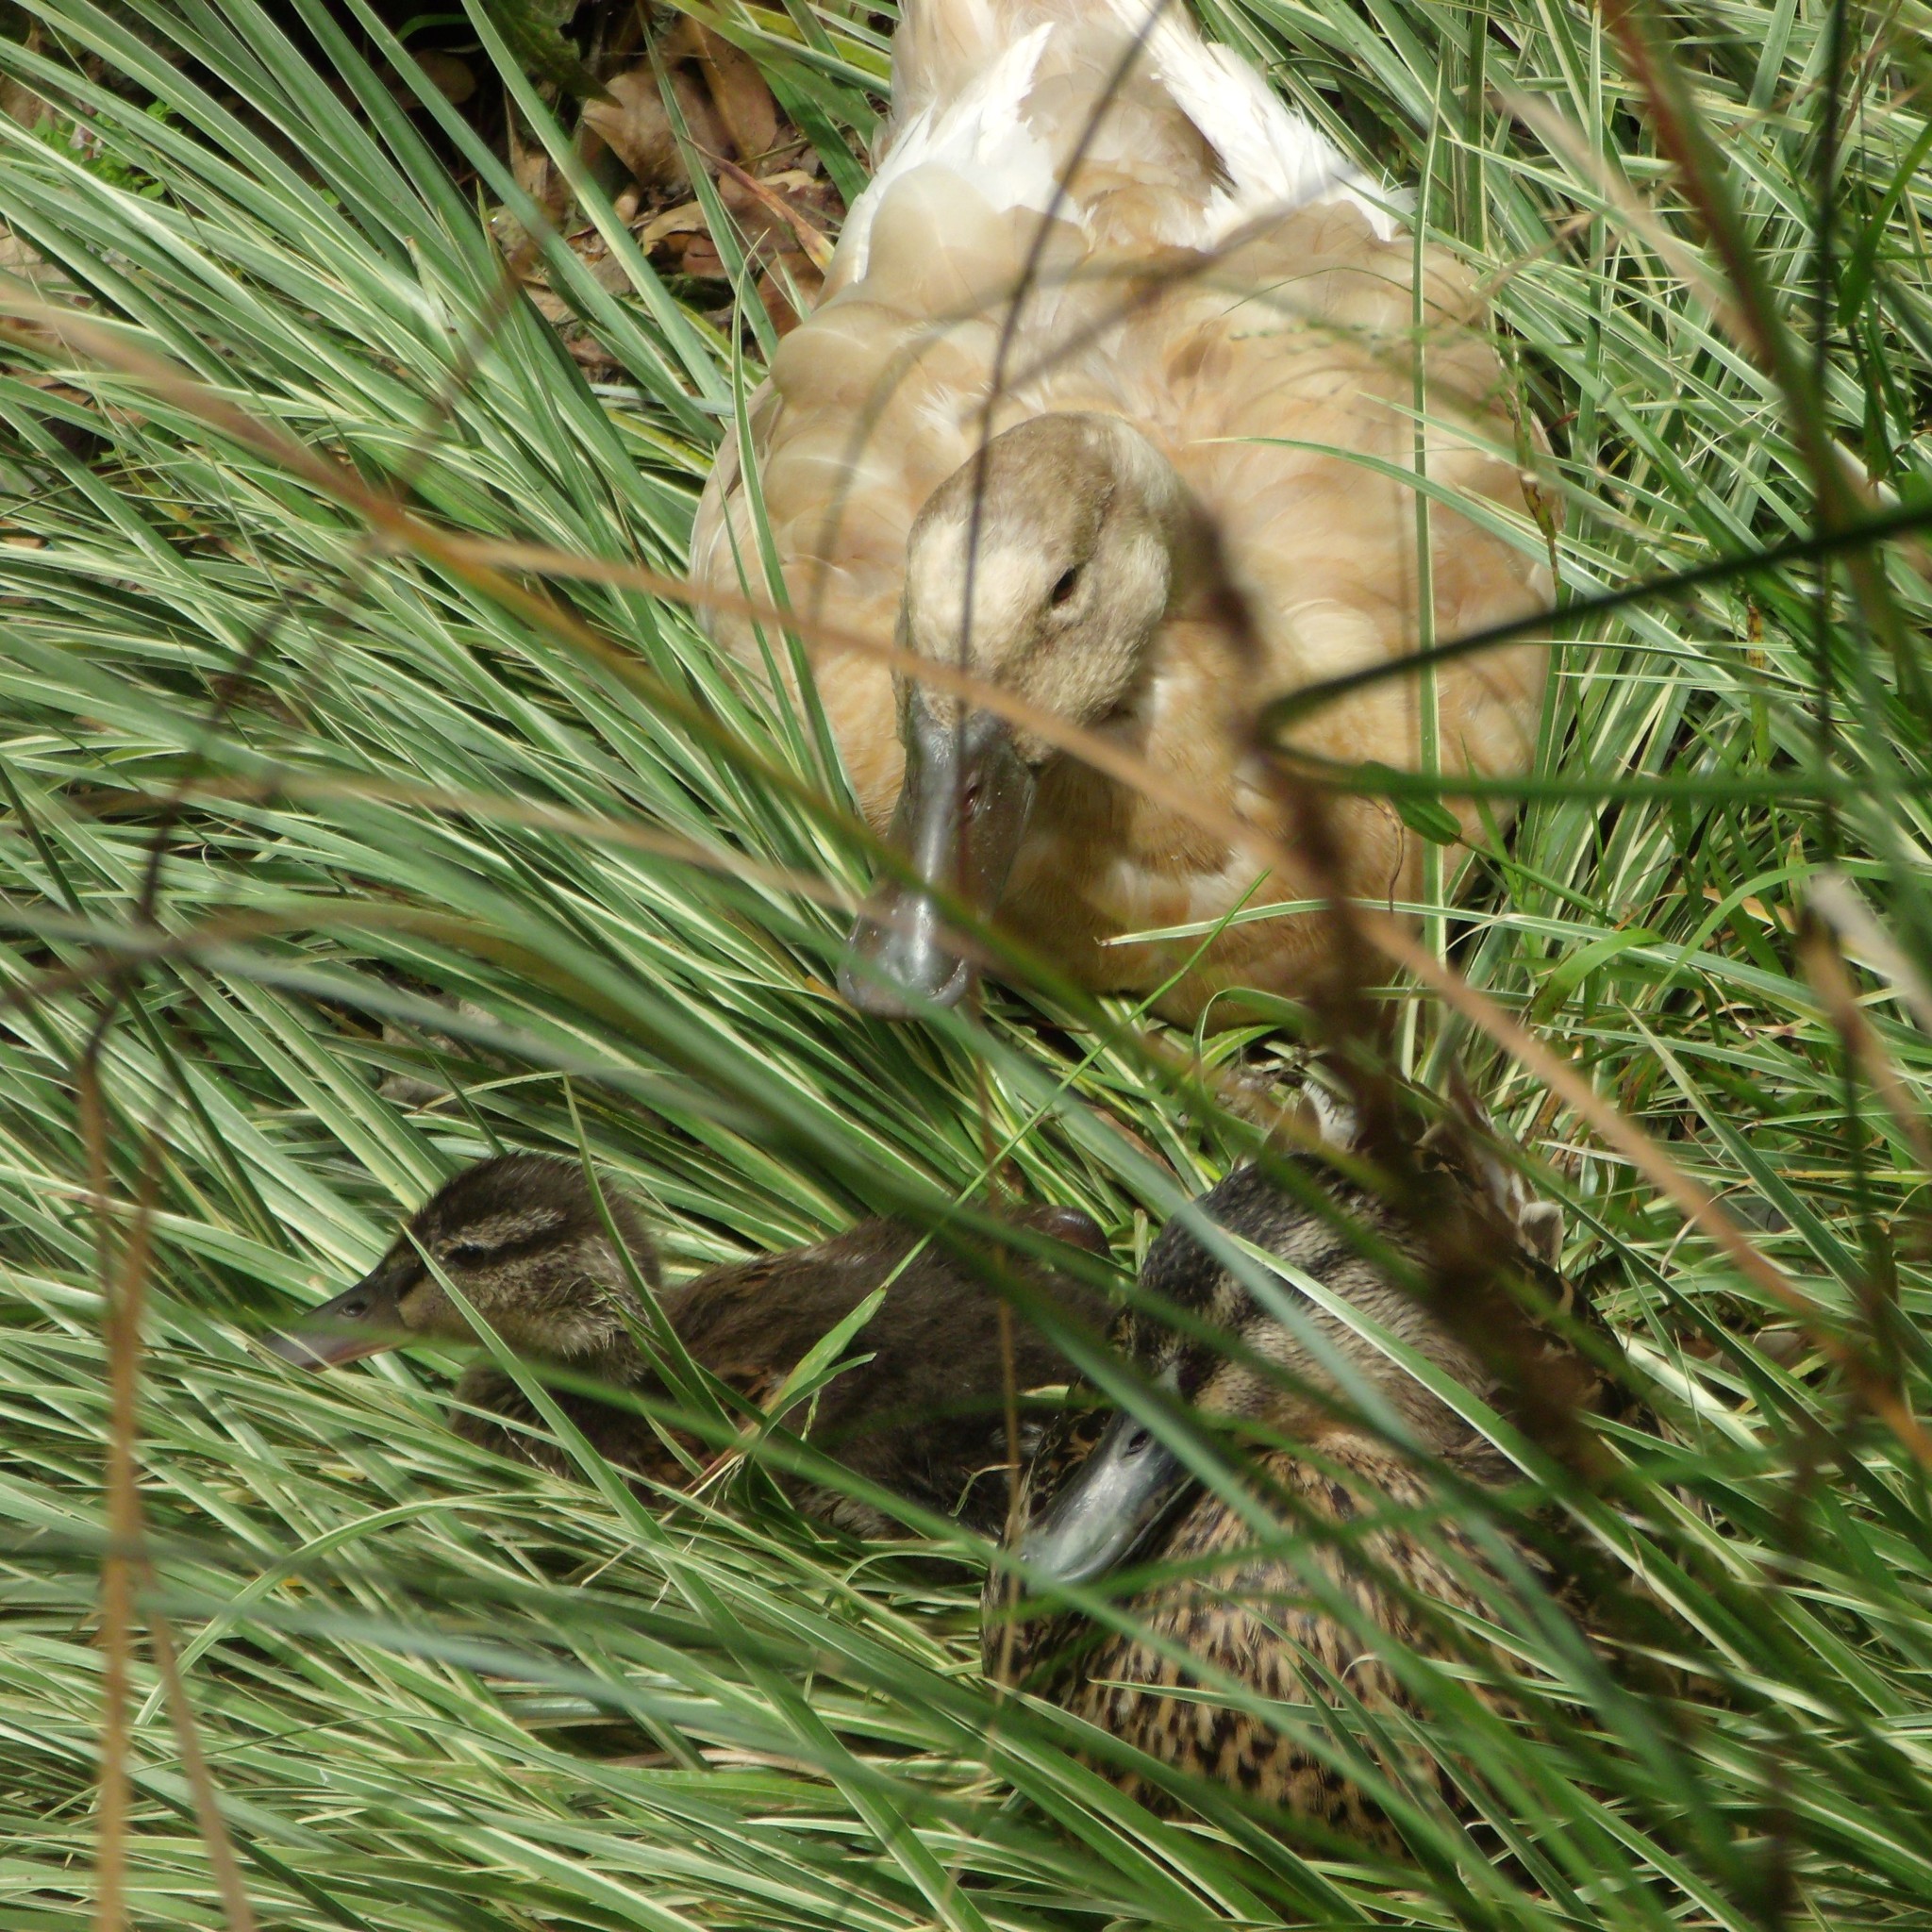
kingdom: Animalia
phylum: Chordata
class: Aves
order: Anseriformes
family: Anatidae
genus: Anas
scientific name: Anas platyrhynchos
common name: Mallard
